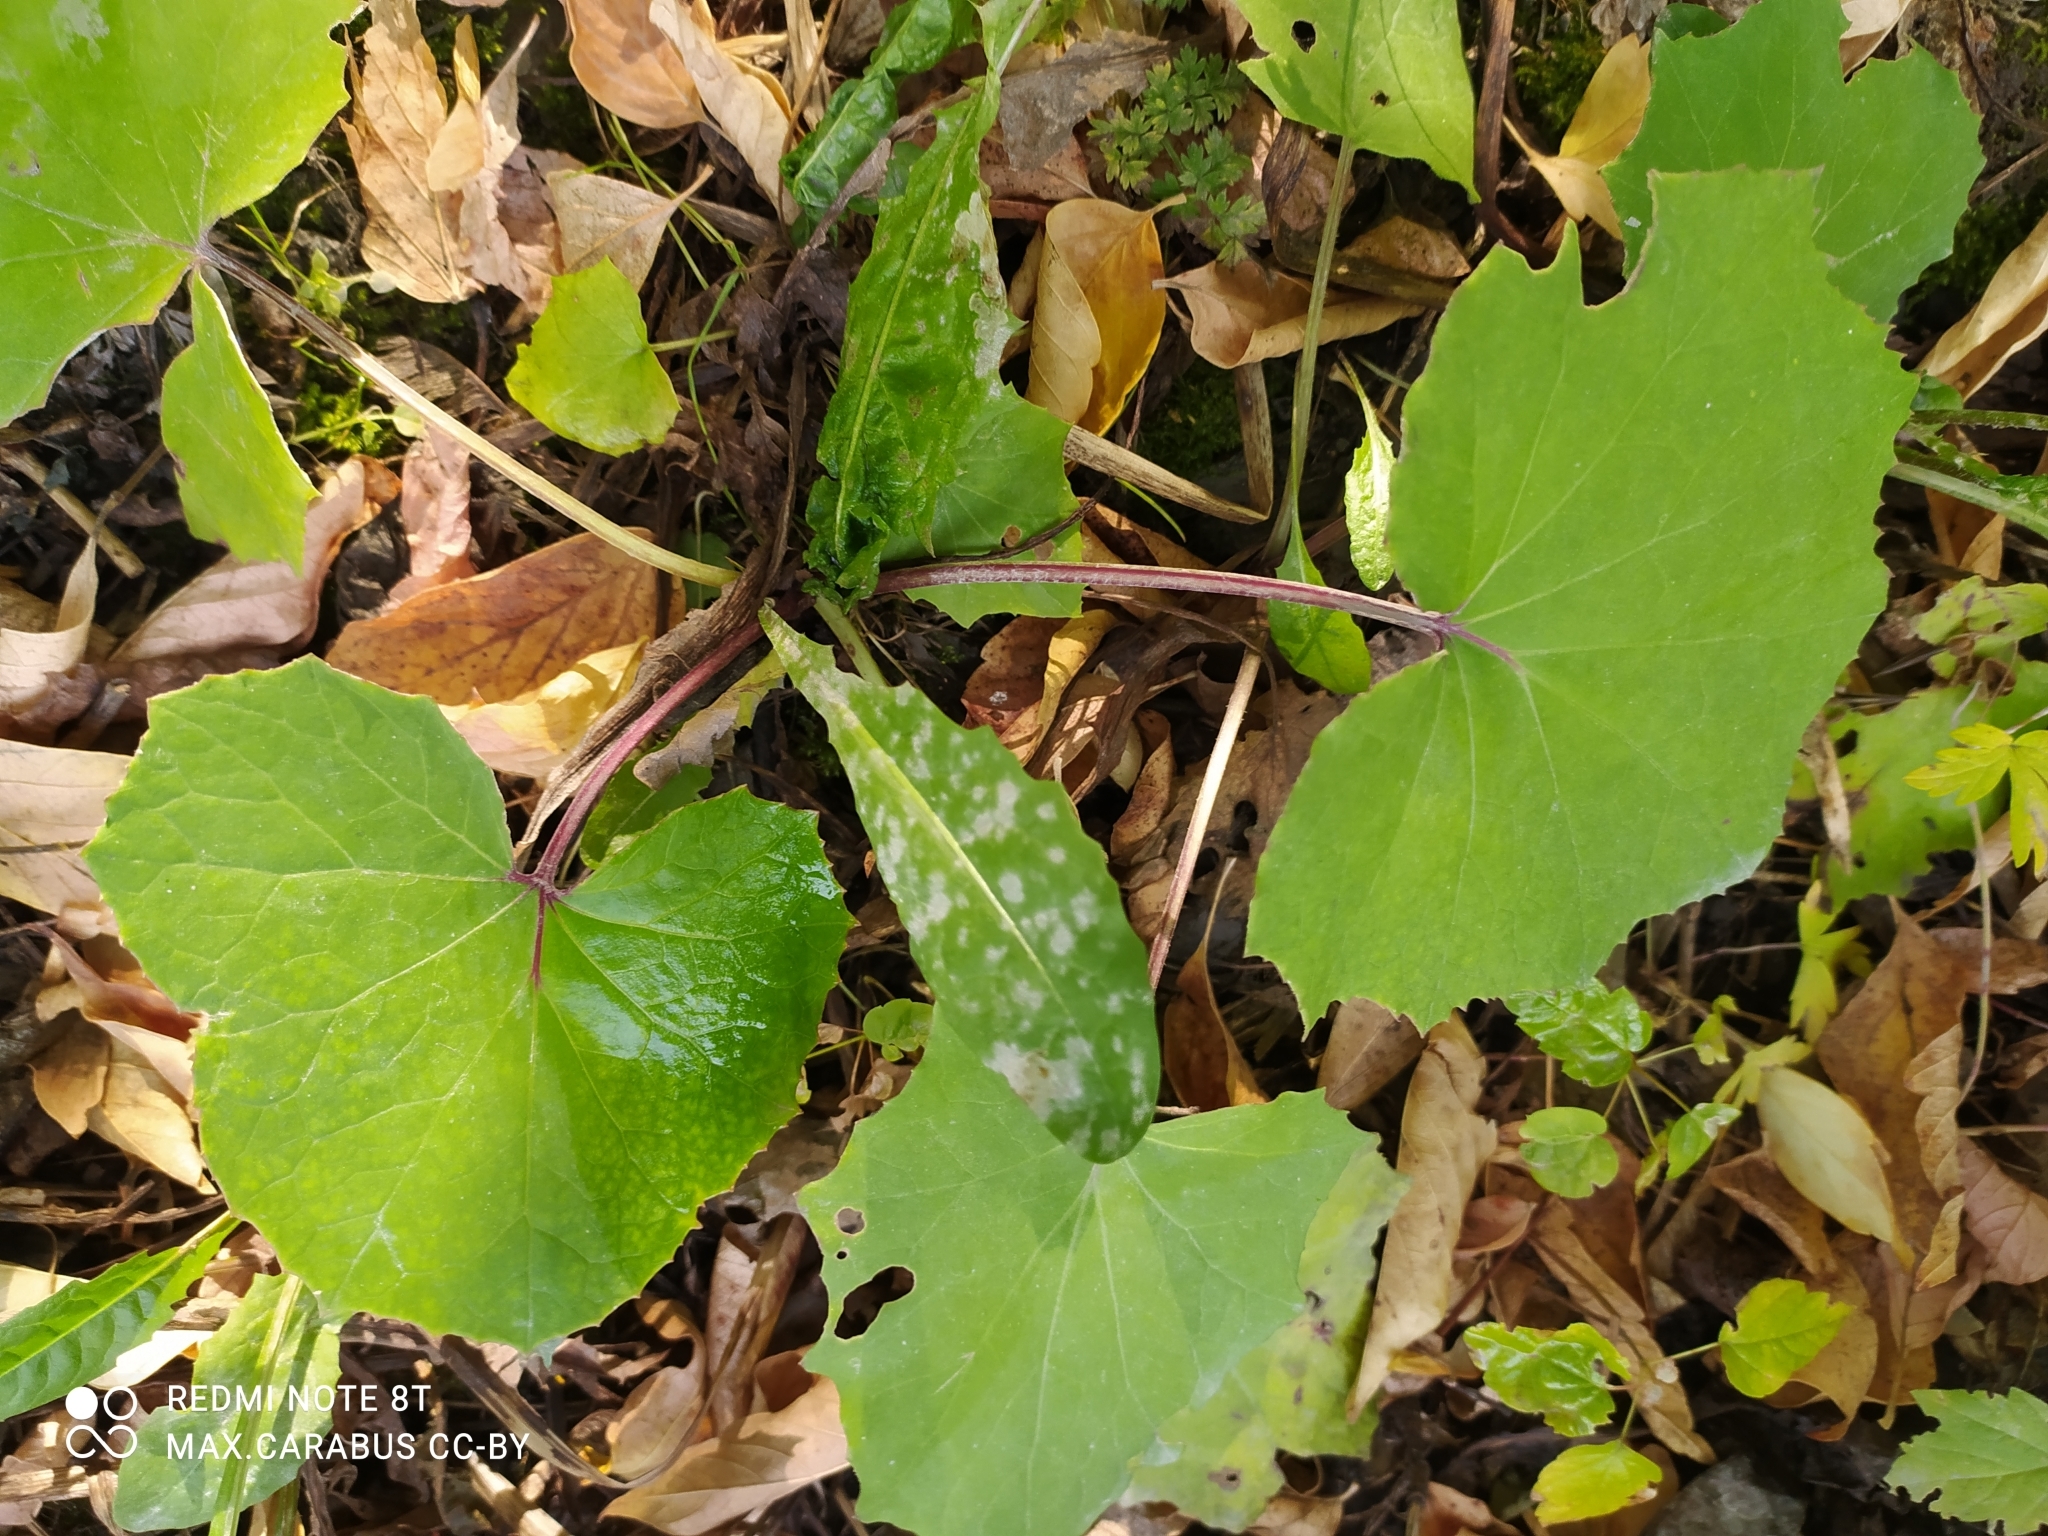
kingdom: Plantae
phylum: Tracheophyta
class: Magnoliopsida
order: Asterales
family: Asteraceae
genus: Tussilago
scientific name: Tussilago farfara
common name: Coltsfoot
